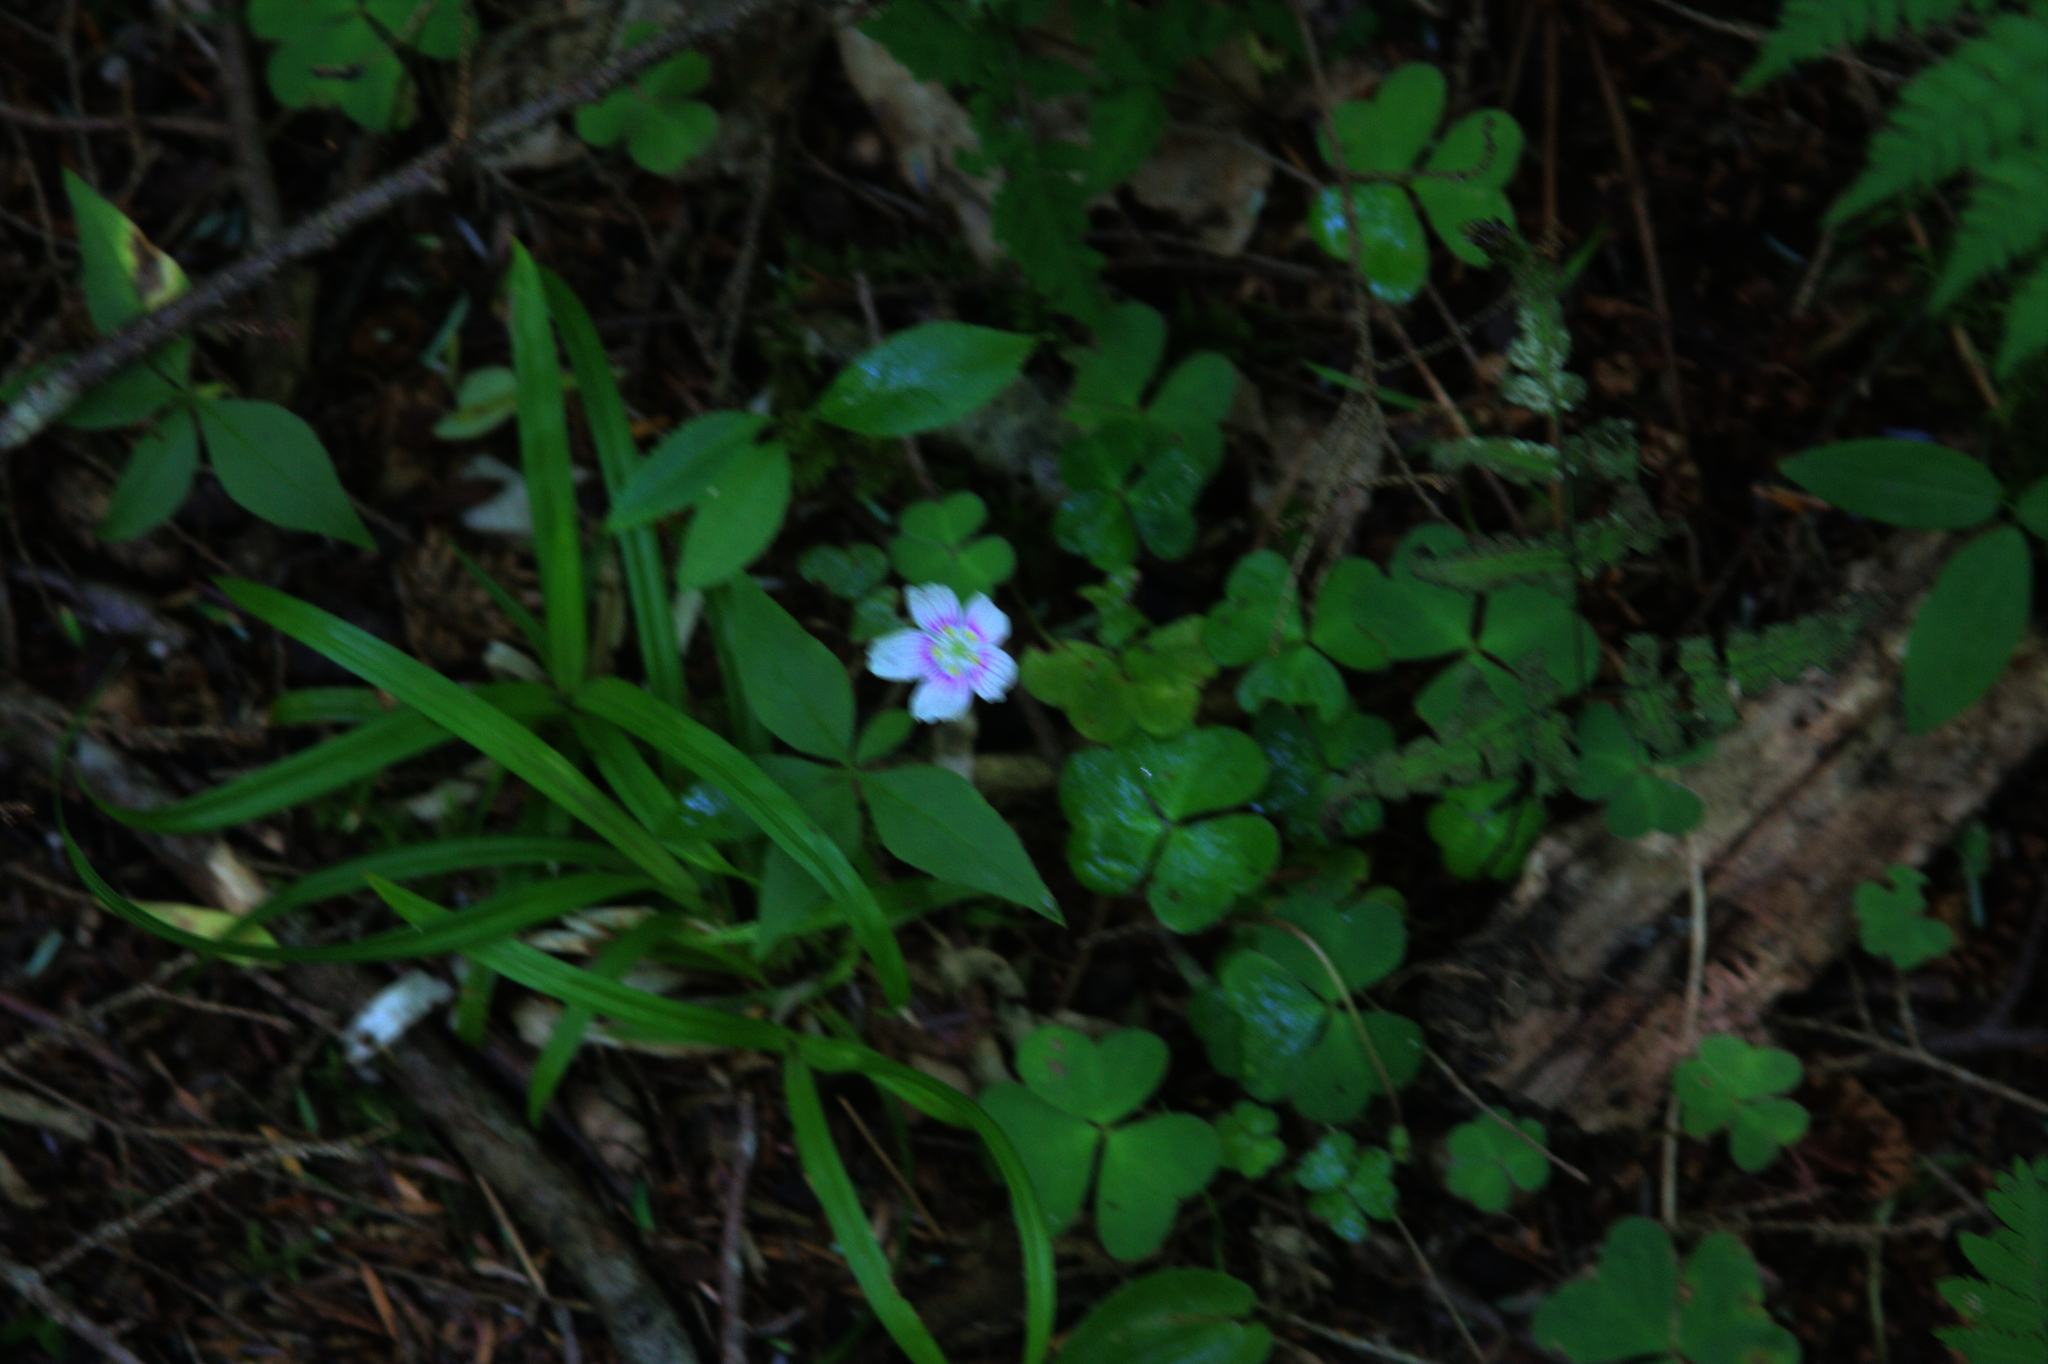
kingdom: Plantae
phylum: Tracheophyta
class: Magnoliopsida
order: Oxalidales
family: Oxalidaceae
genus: Oxalis
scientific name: Oxalis montana
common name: American wood-sorrel
